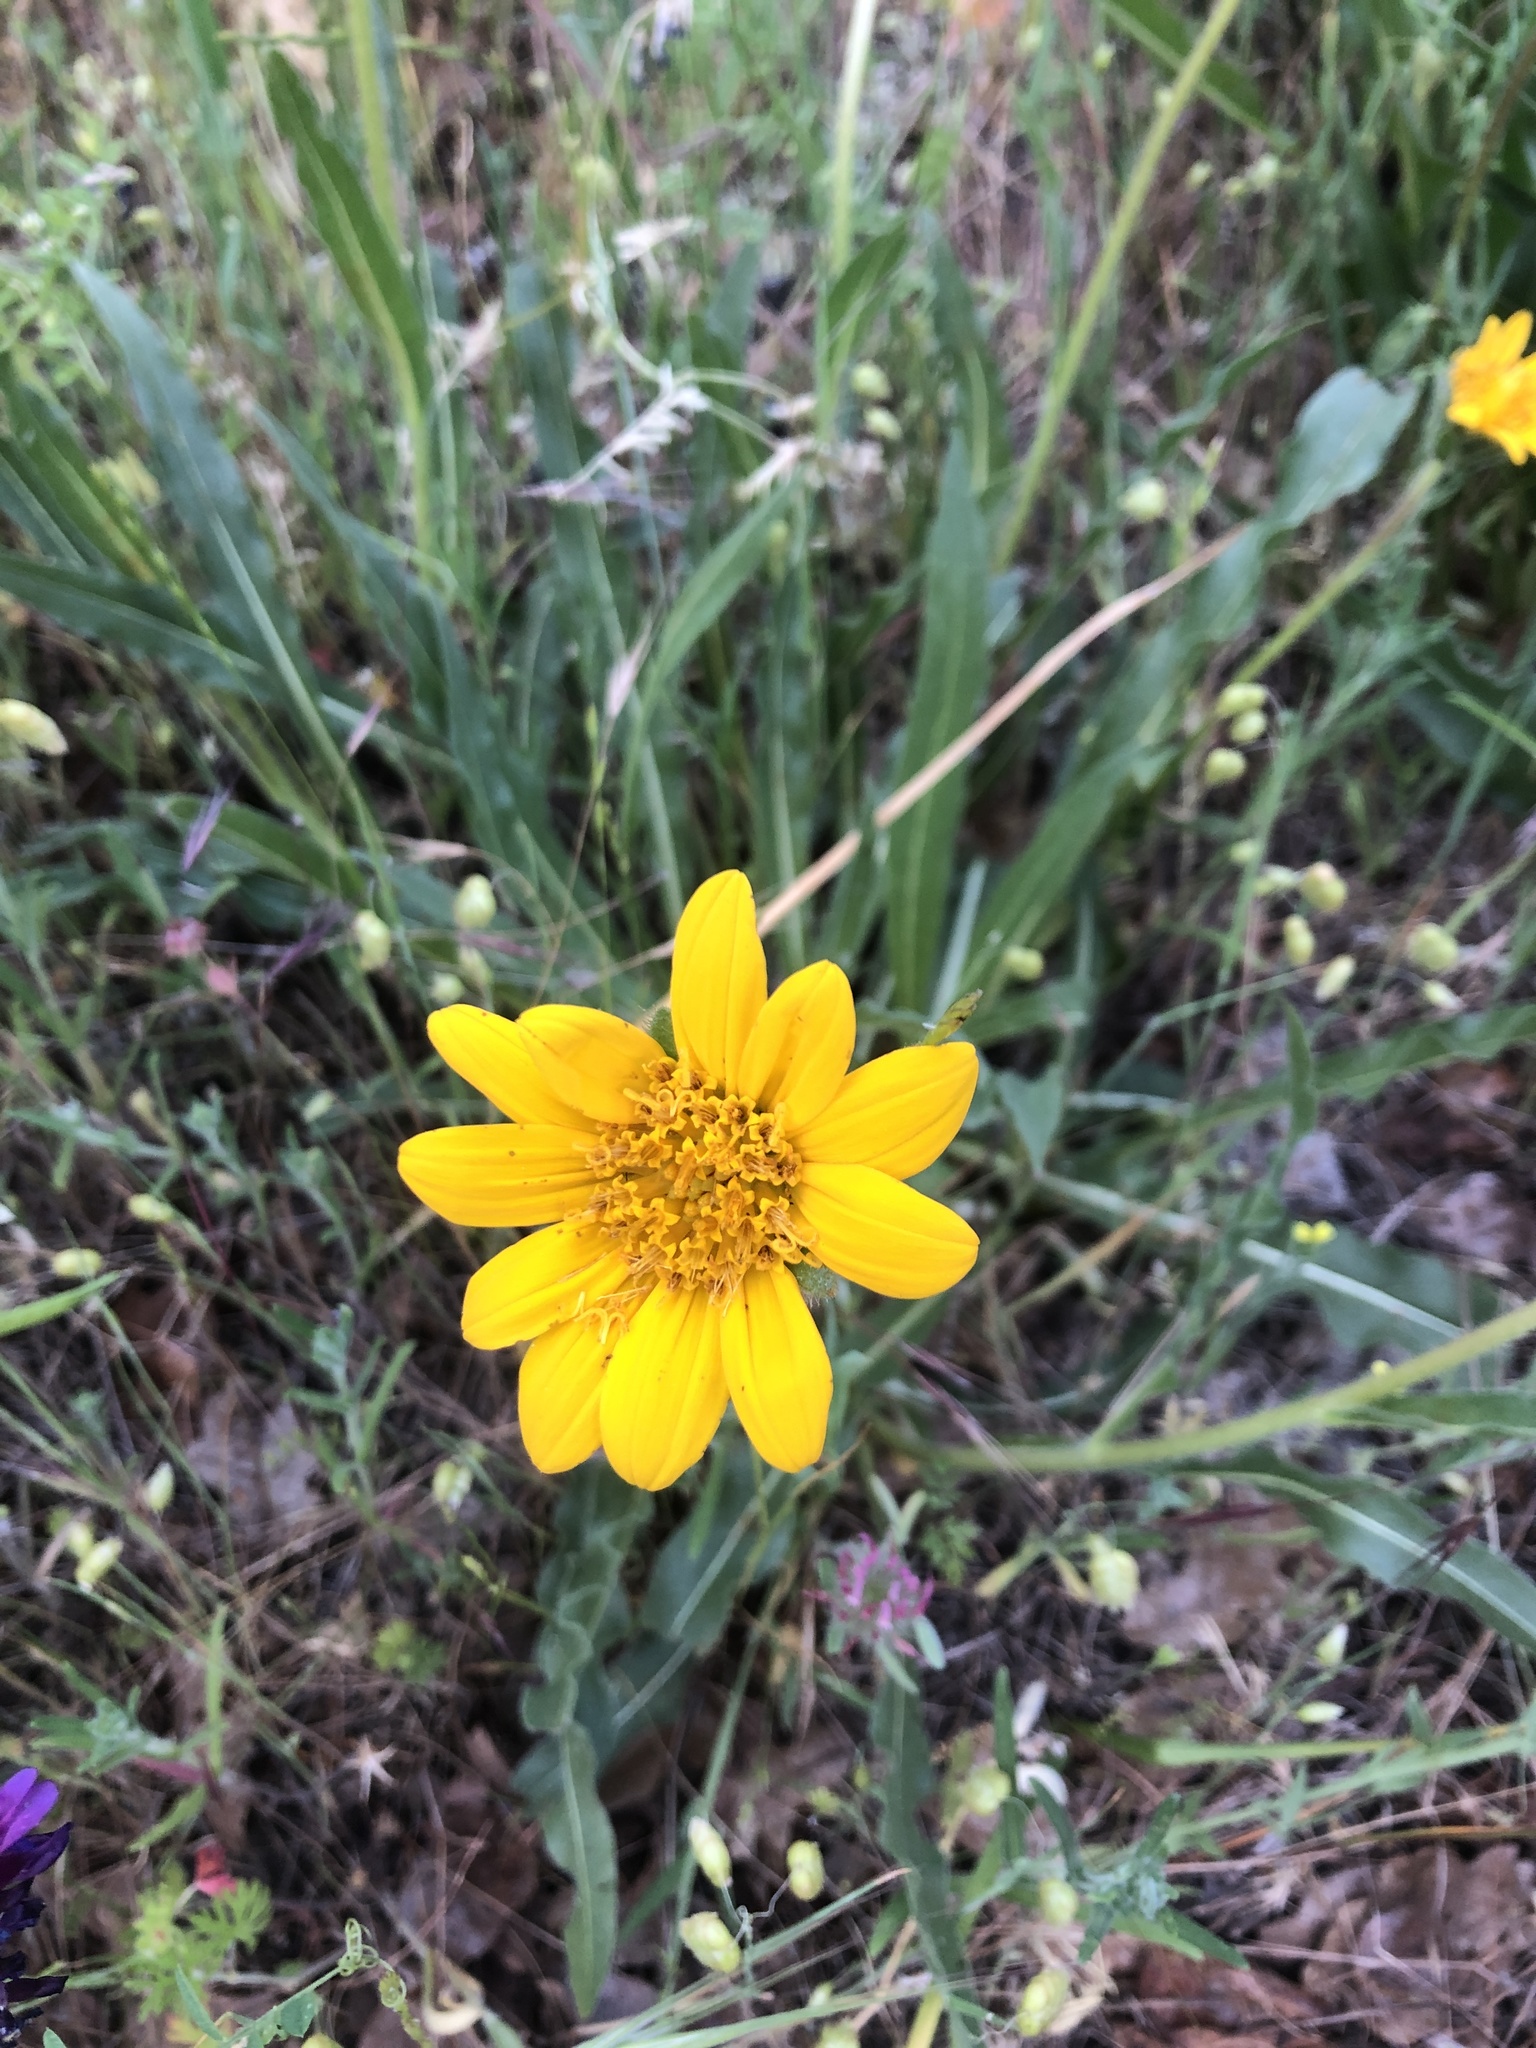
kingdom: Plantae
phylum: Tracheophyta
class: Magnoliopsida
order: Asterales
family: Asteraceae
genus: Wyethia
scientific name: Wyethia angustifolia
